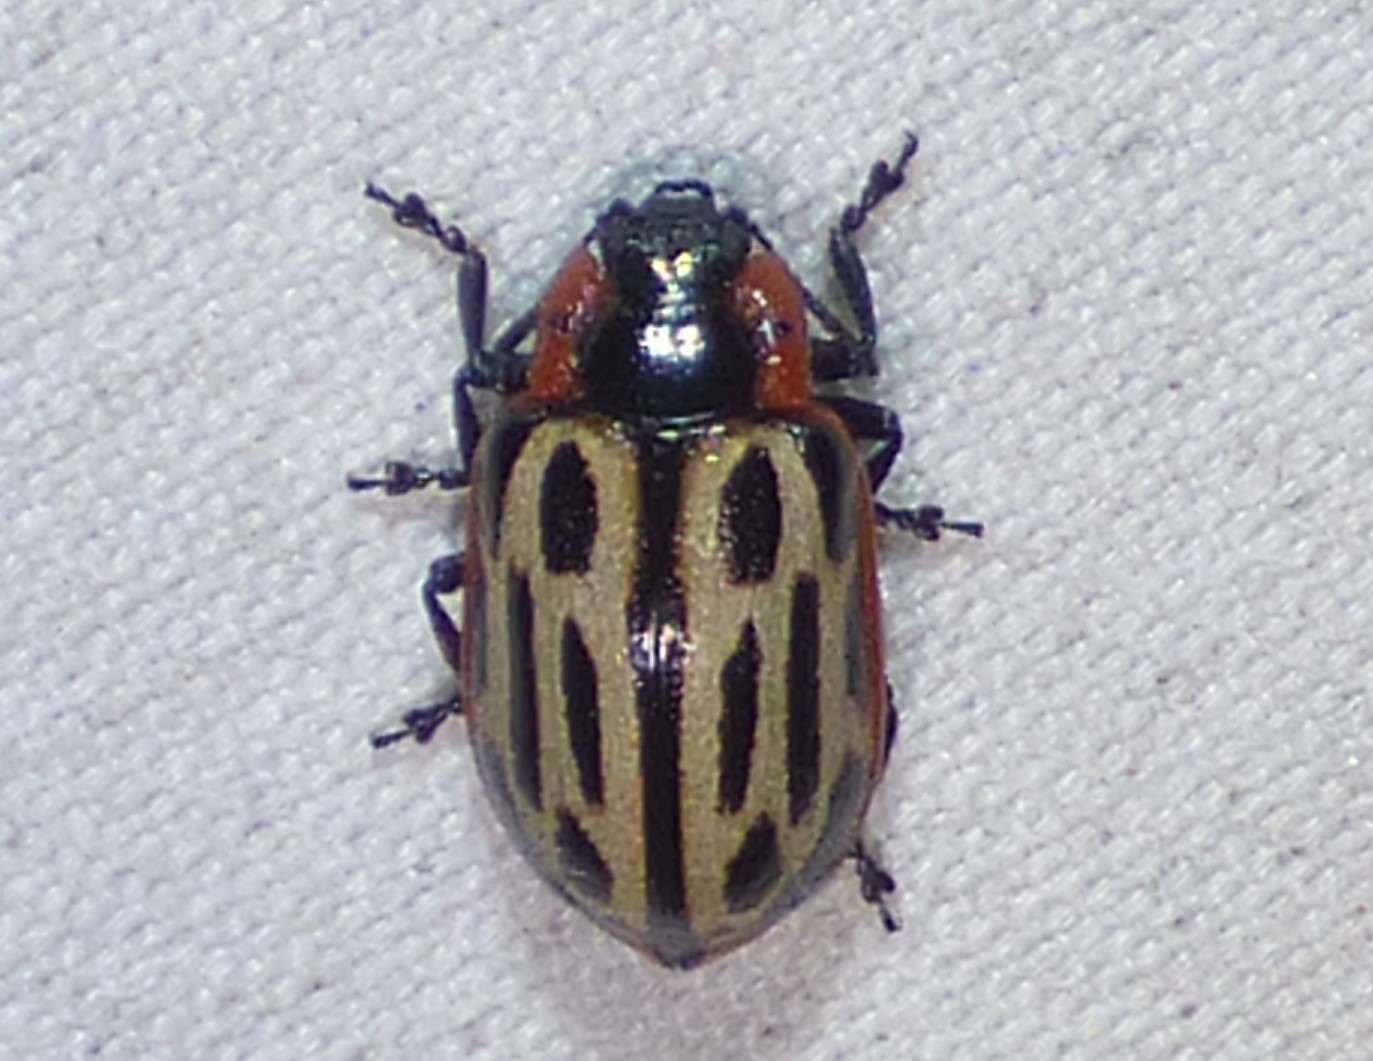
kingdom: Animalia
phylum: Arthropoda
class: Insecta
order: Coleoptera
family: Chrysomelidae
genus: Aethiopocassis
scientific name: Aethiopocassis scripta
